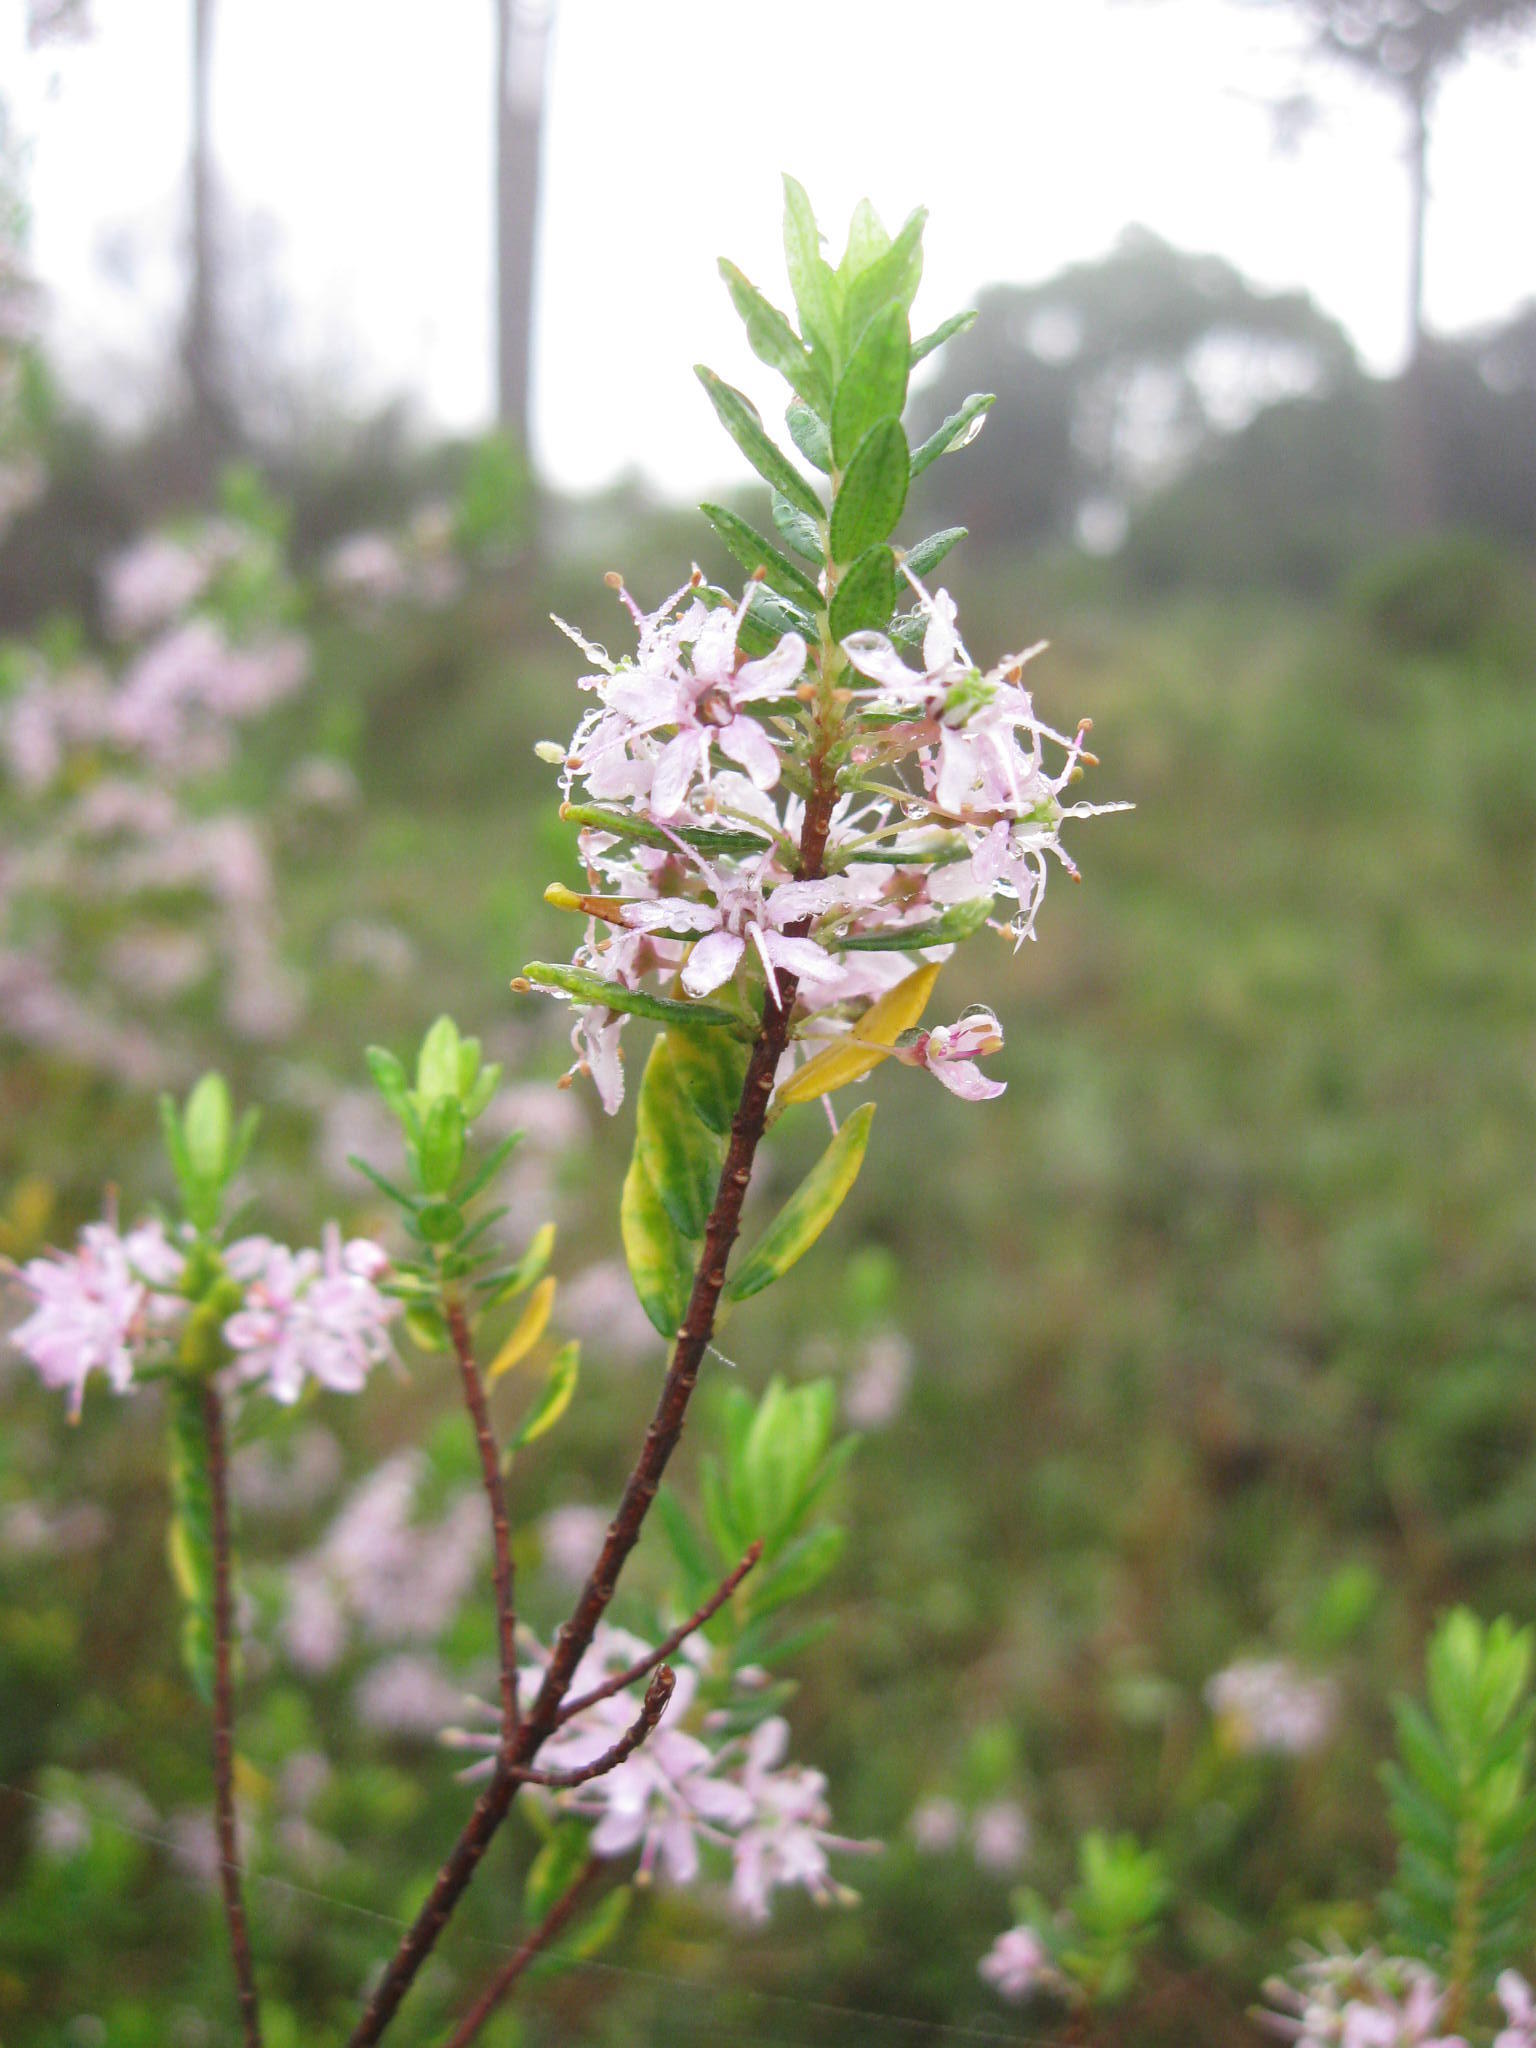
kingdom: Plantae
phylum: Tracheophyta
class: Magnoliopsida
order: Sapindales
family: Rutaceae
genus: Agathosma
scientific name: Agathosma ovata
